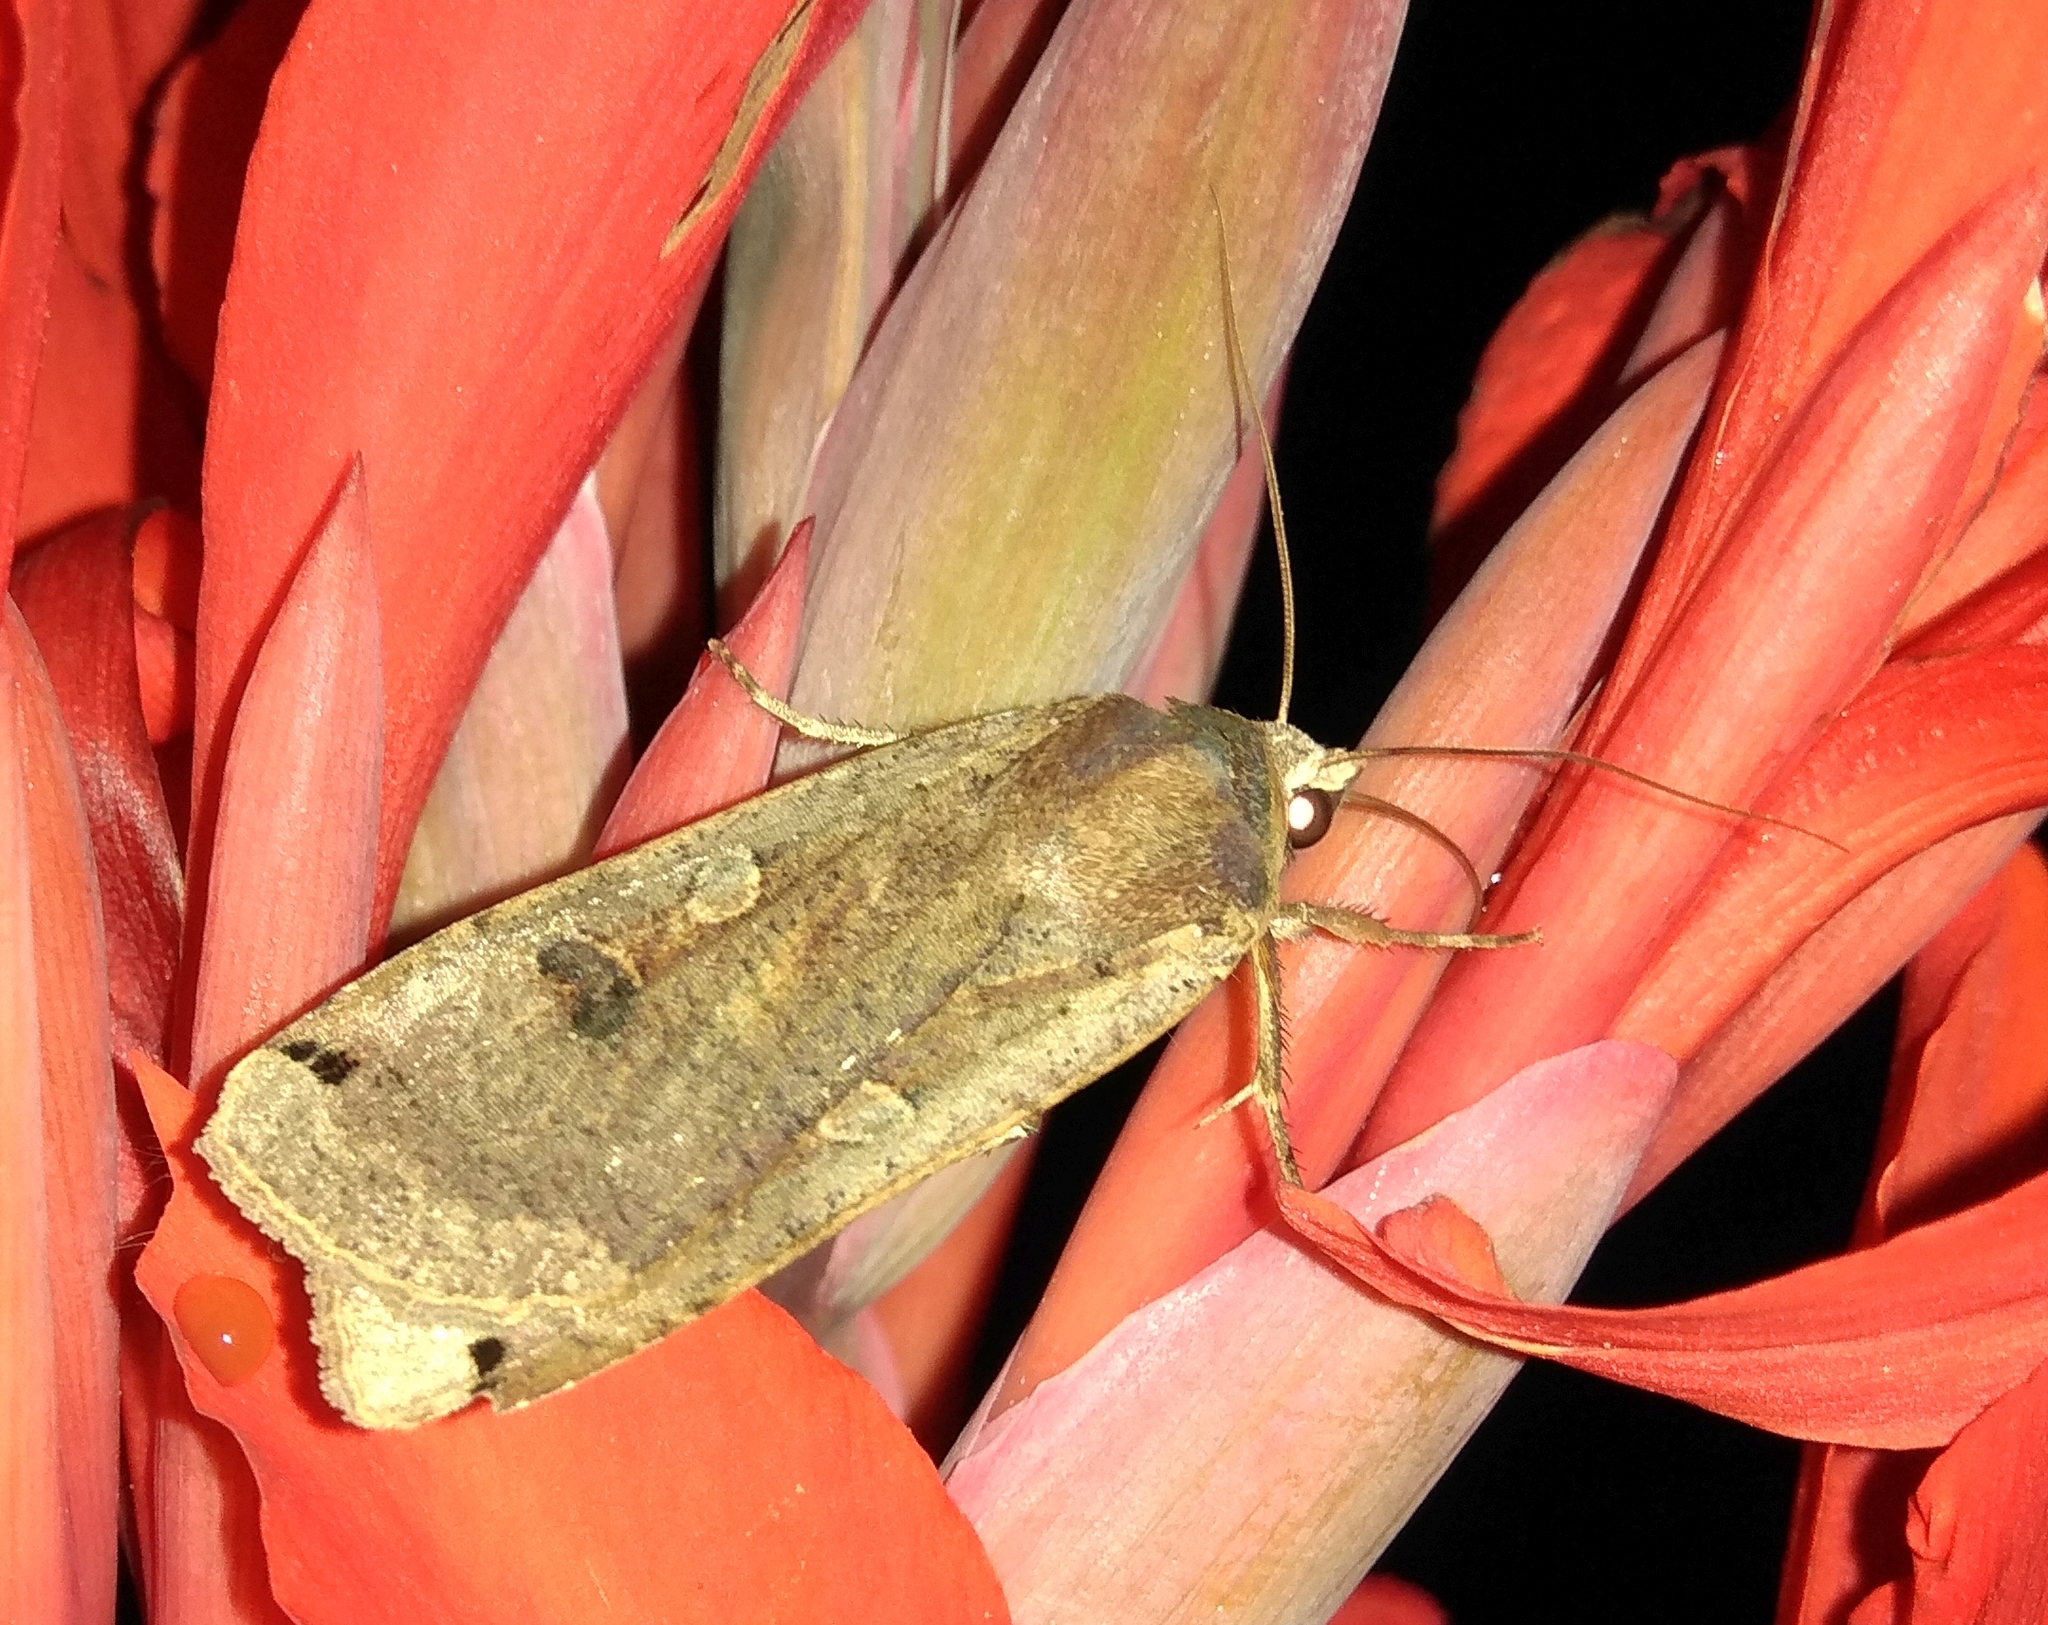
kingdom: Animalia
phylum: Arthropoda
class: Insecta
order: Lepidoptera
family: Noctuidae
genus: Noctua
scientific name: Noctua pronuba
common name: Large yellow underwing
